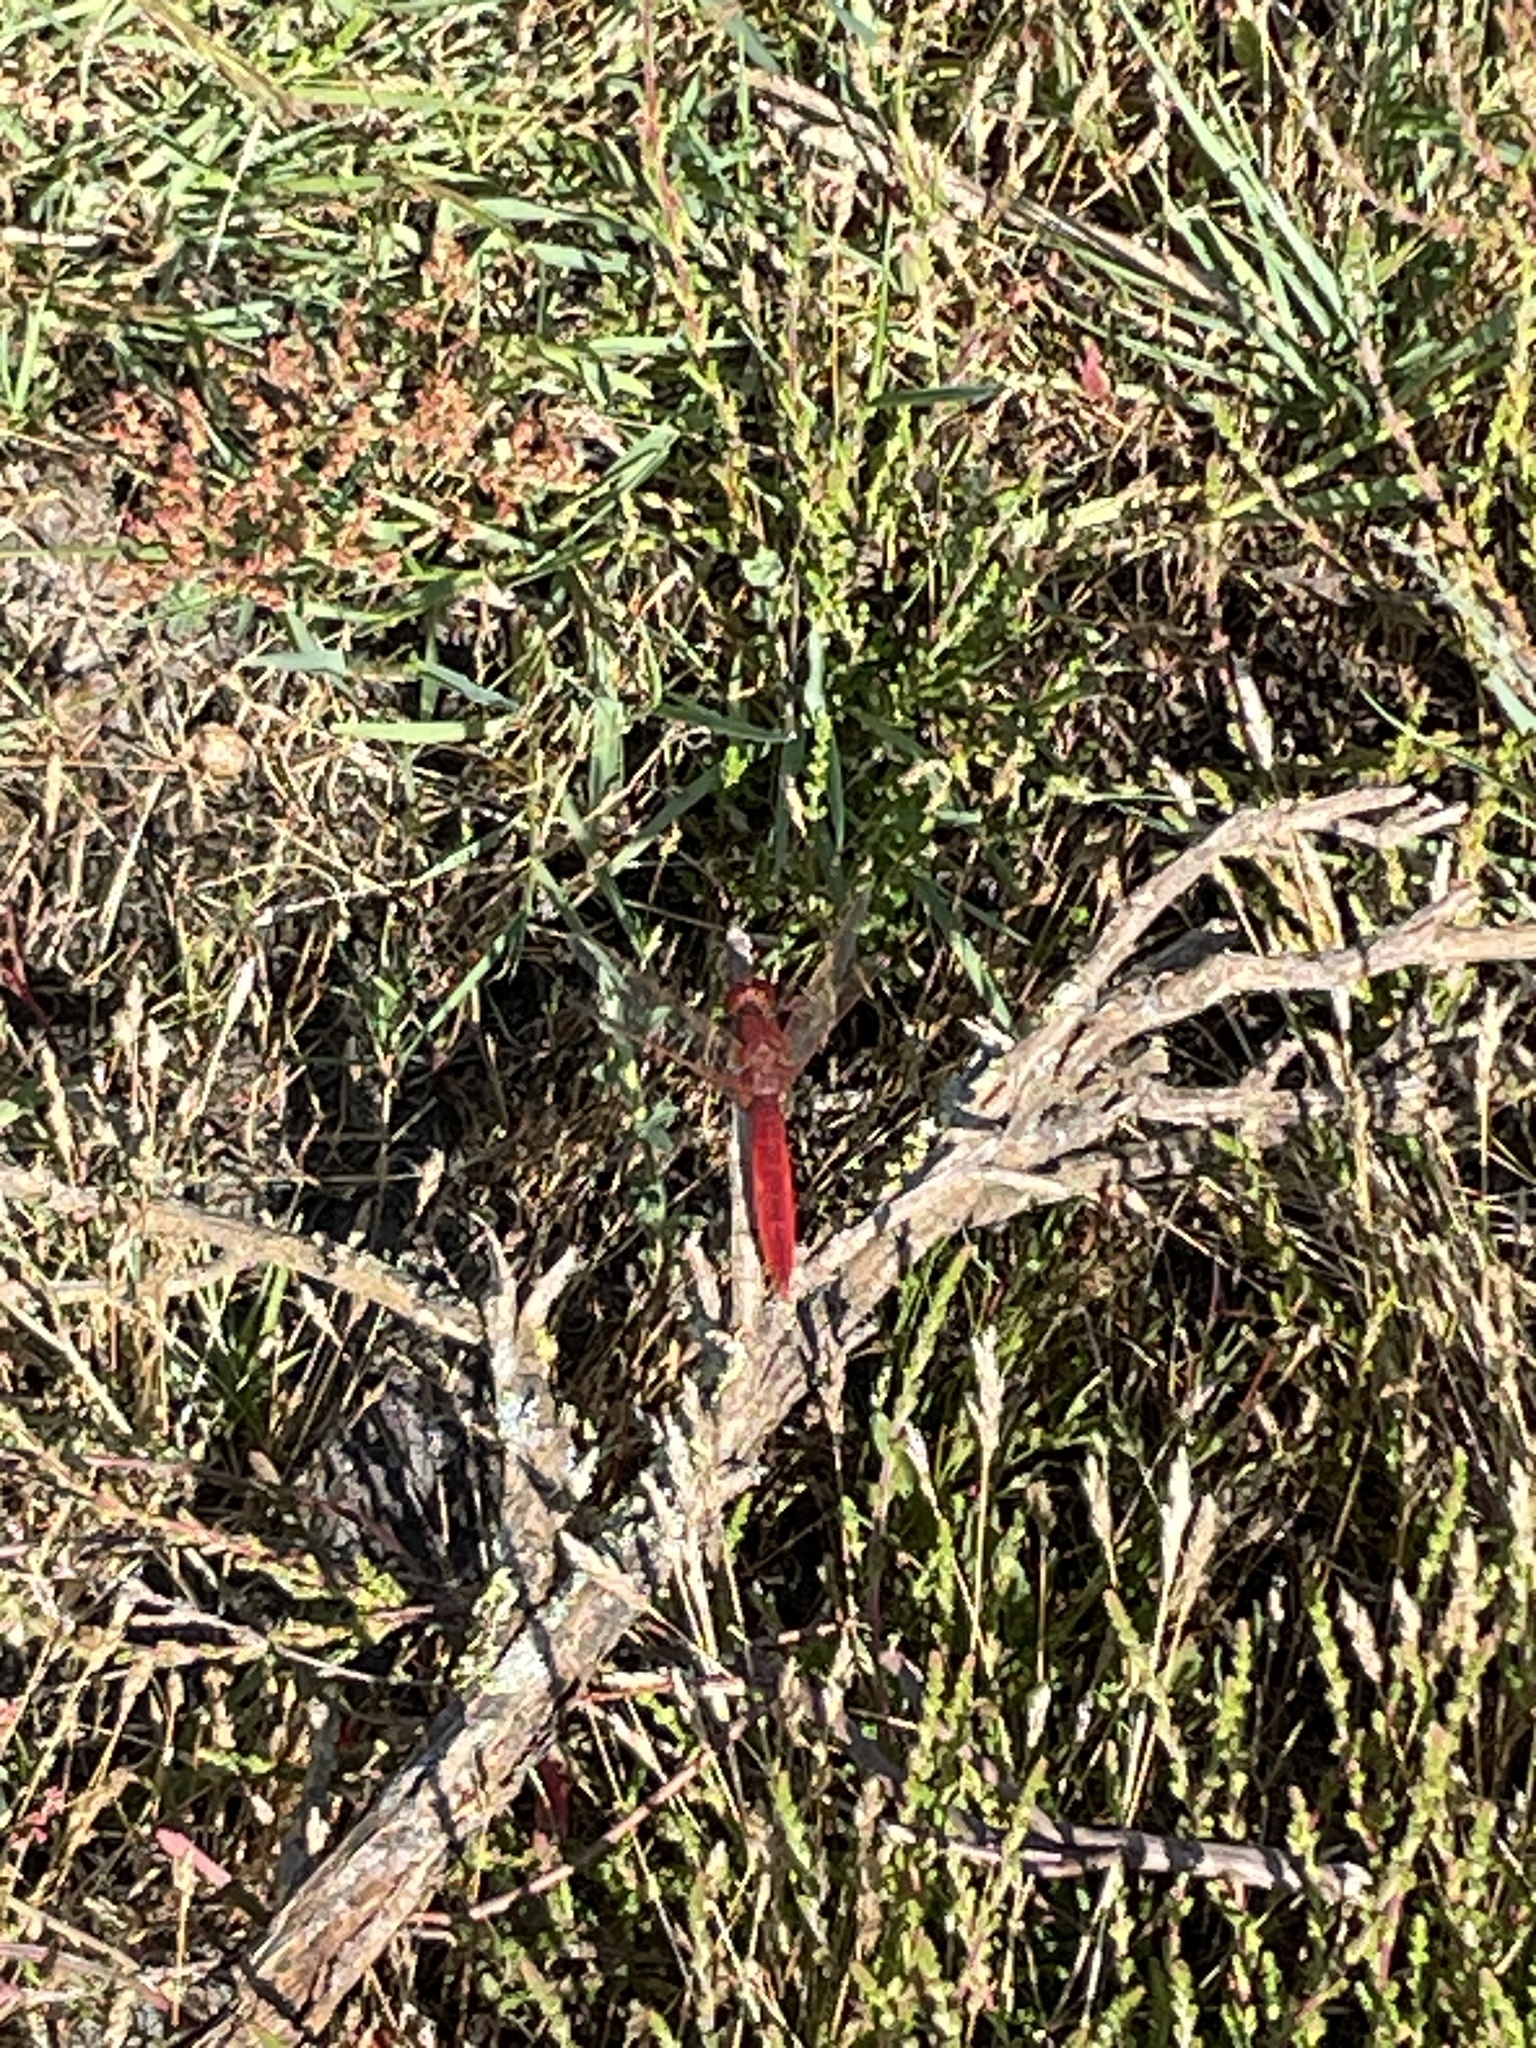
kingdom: Animalia
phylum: Arthropoda
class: Insecta
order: Odonata
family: Libellulidae
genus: Crocothemis
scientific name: Crocothemis erythraea
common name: Scarlet dragonfly
